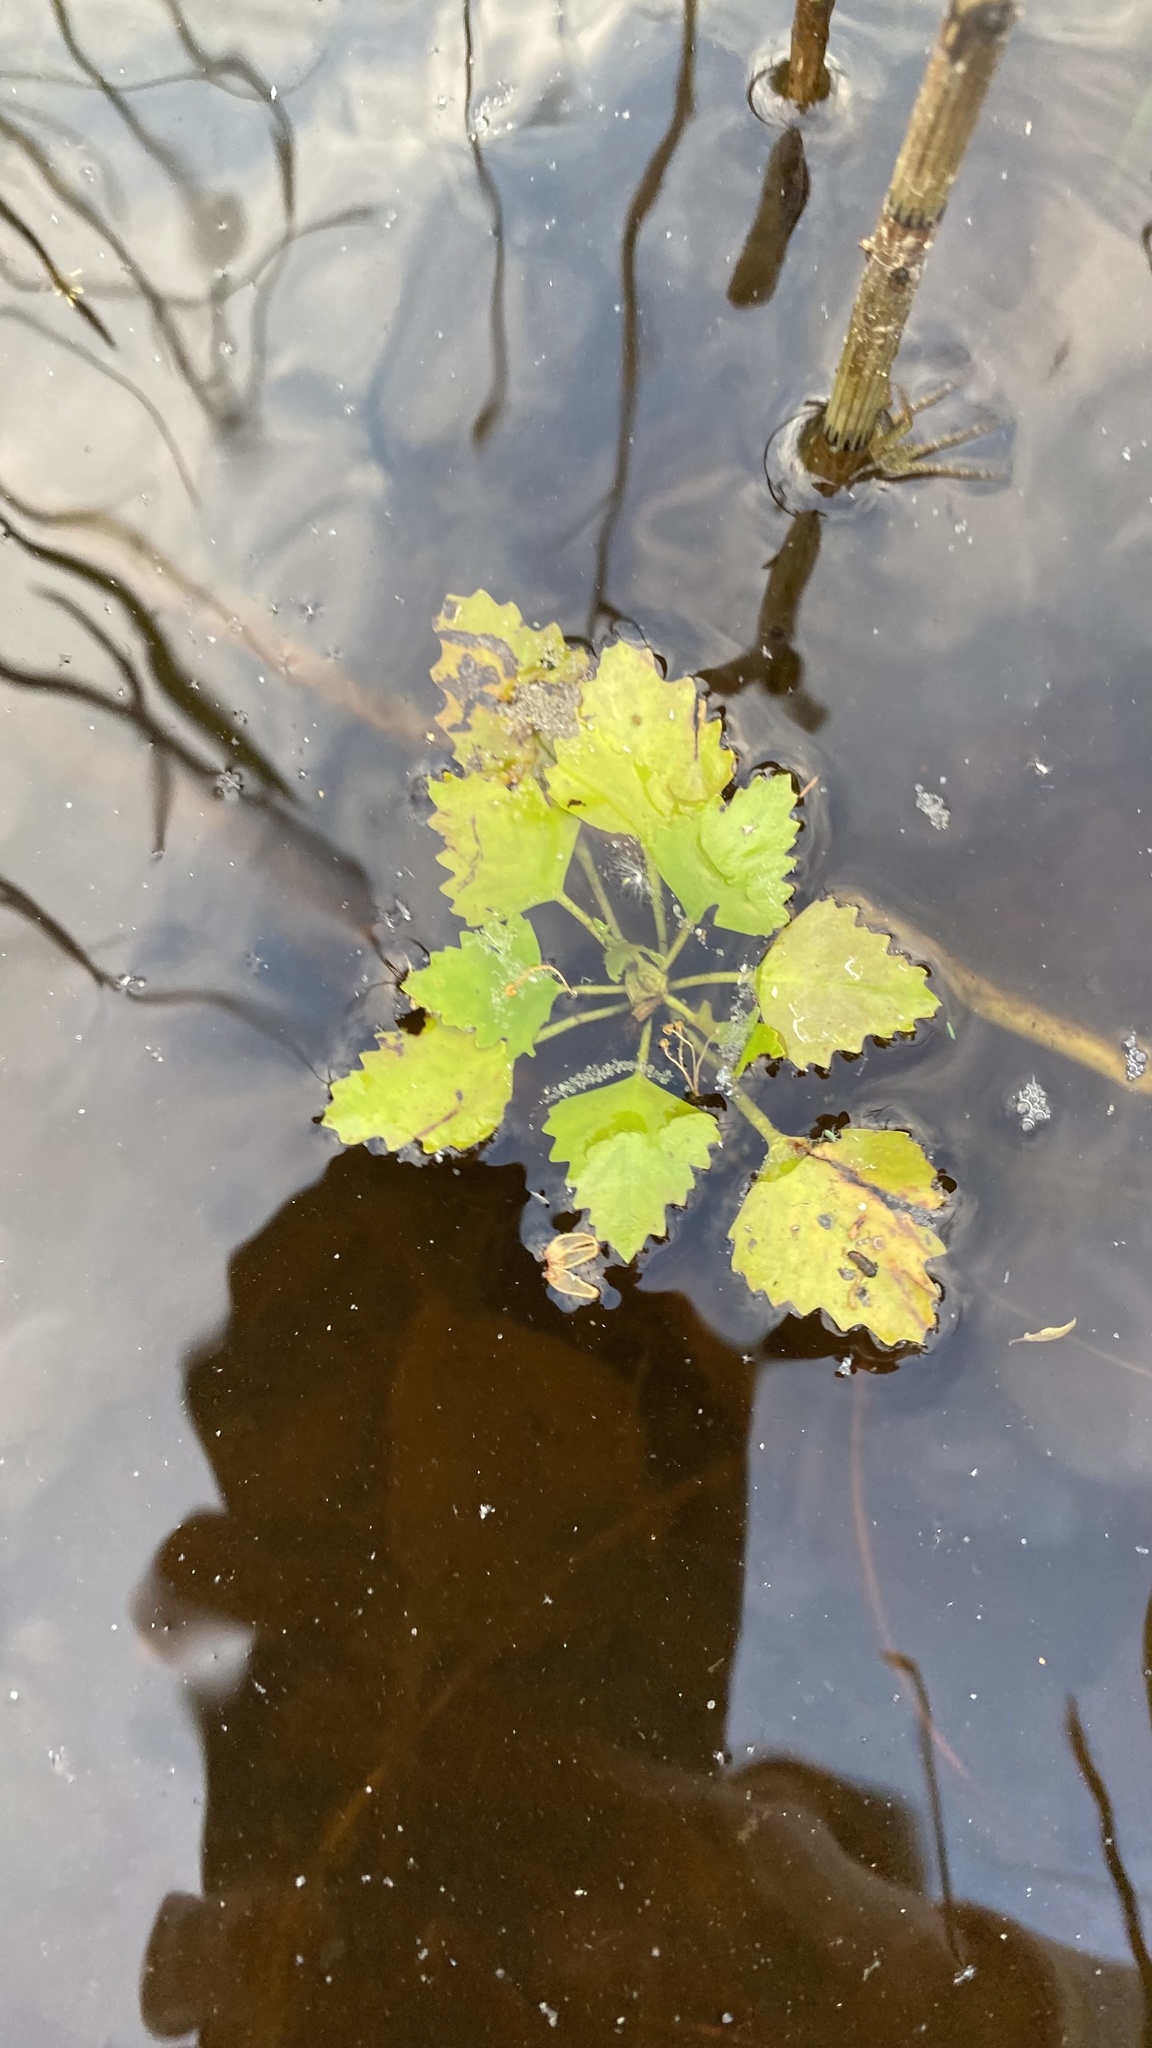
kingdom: Plantae
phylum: Tracheophyta
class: Magnoliopsida
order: Myrtales
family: Lythraceae
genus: Trapa
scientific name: Trapa natans
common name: Water chestnut
